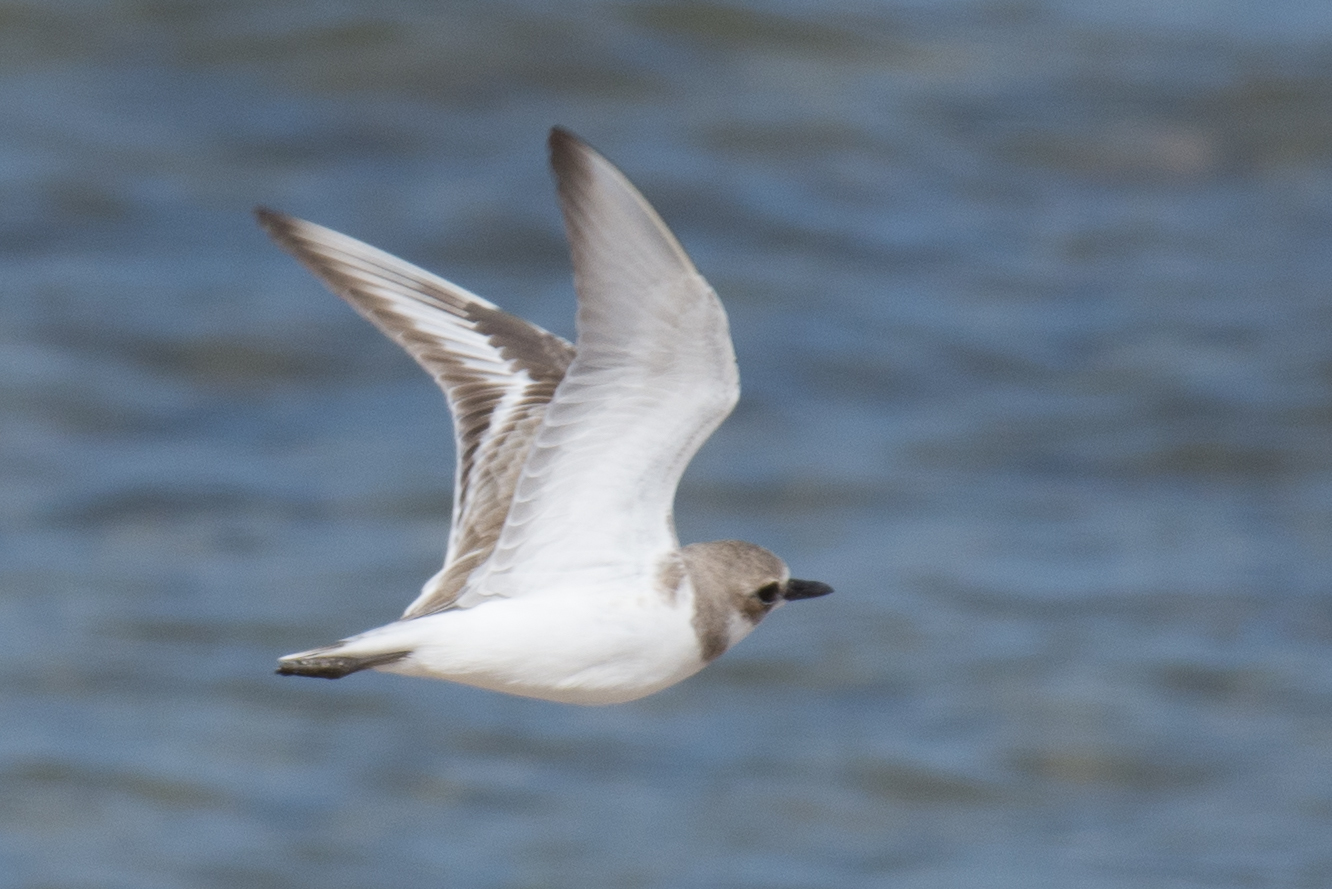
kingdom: Animalia
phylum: Chordata
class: Aves
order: Charadriiformes
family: Charadriidae
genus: Charadrius
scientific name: Charadrius leschenaultii
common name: Greater sand plover
